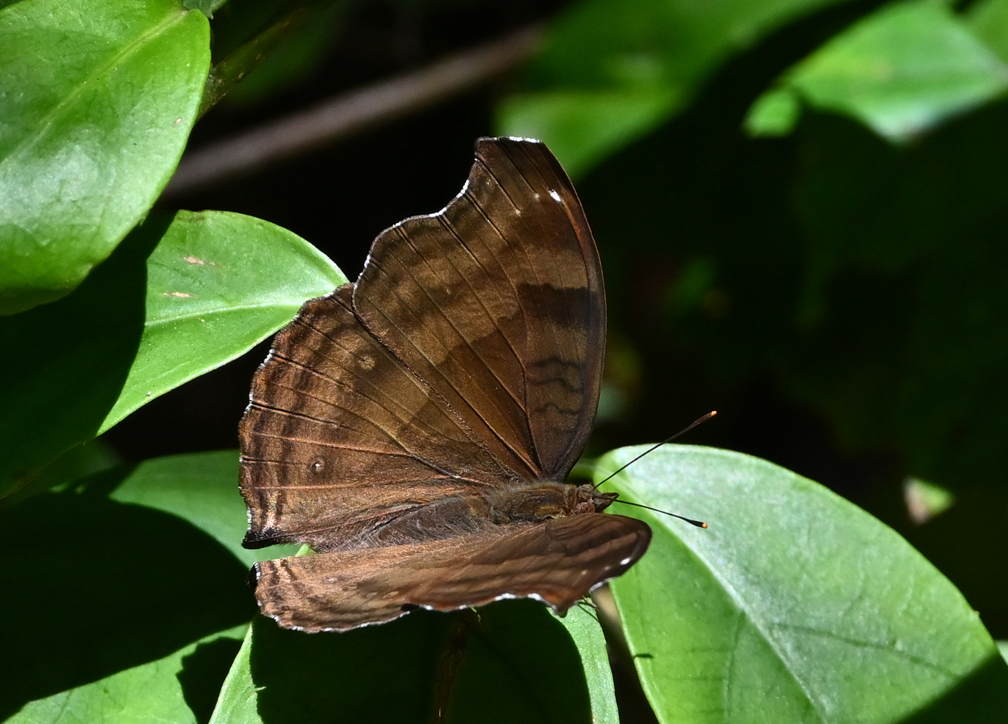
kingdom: Animalia
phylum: Arthropoda
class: Insecta
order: Lepidoptera
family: Nymphalidae
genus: Junonia
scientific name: Junonia iphita
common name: Chocolate pansy
